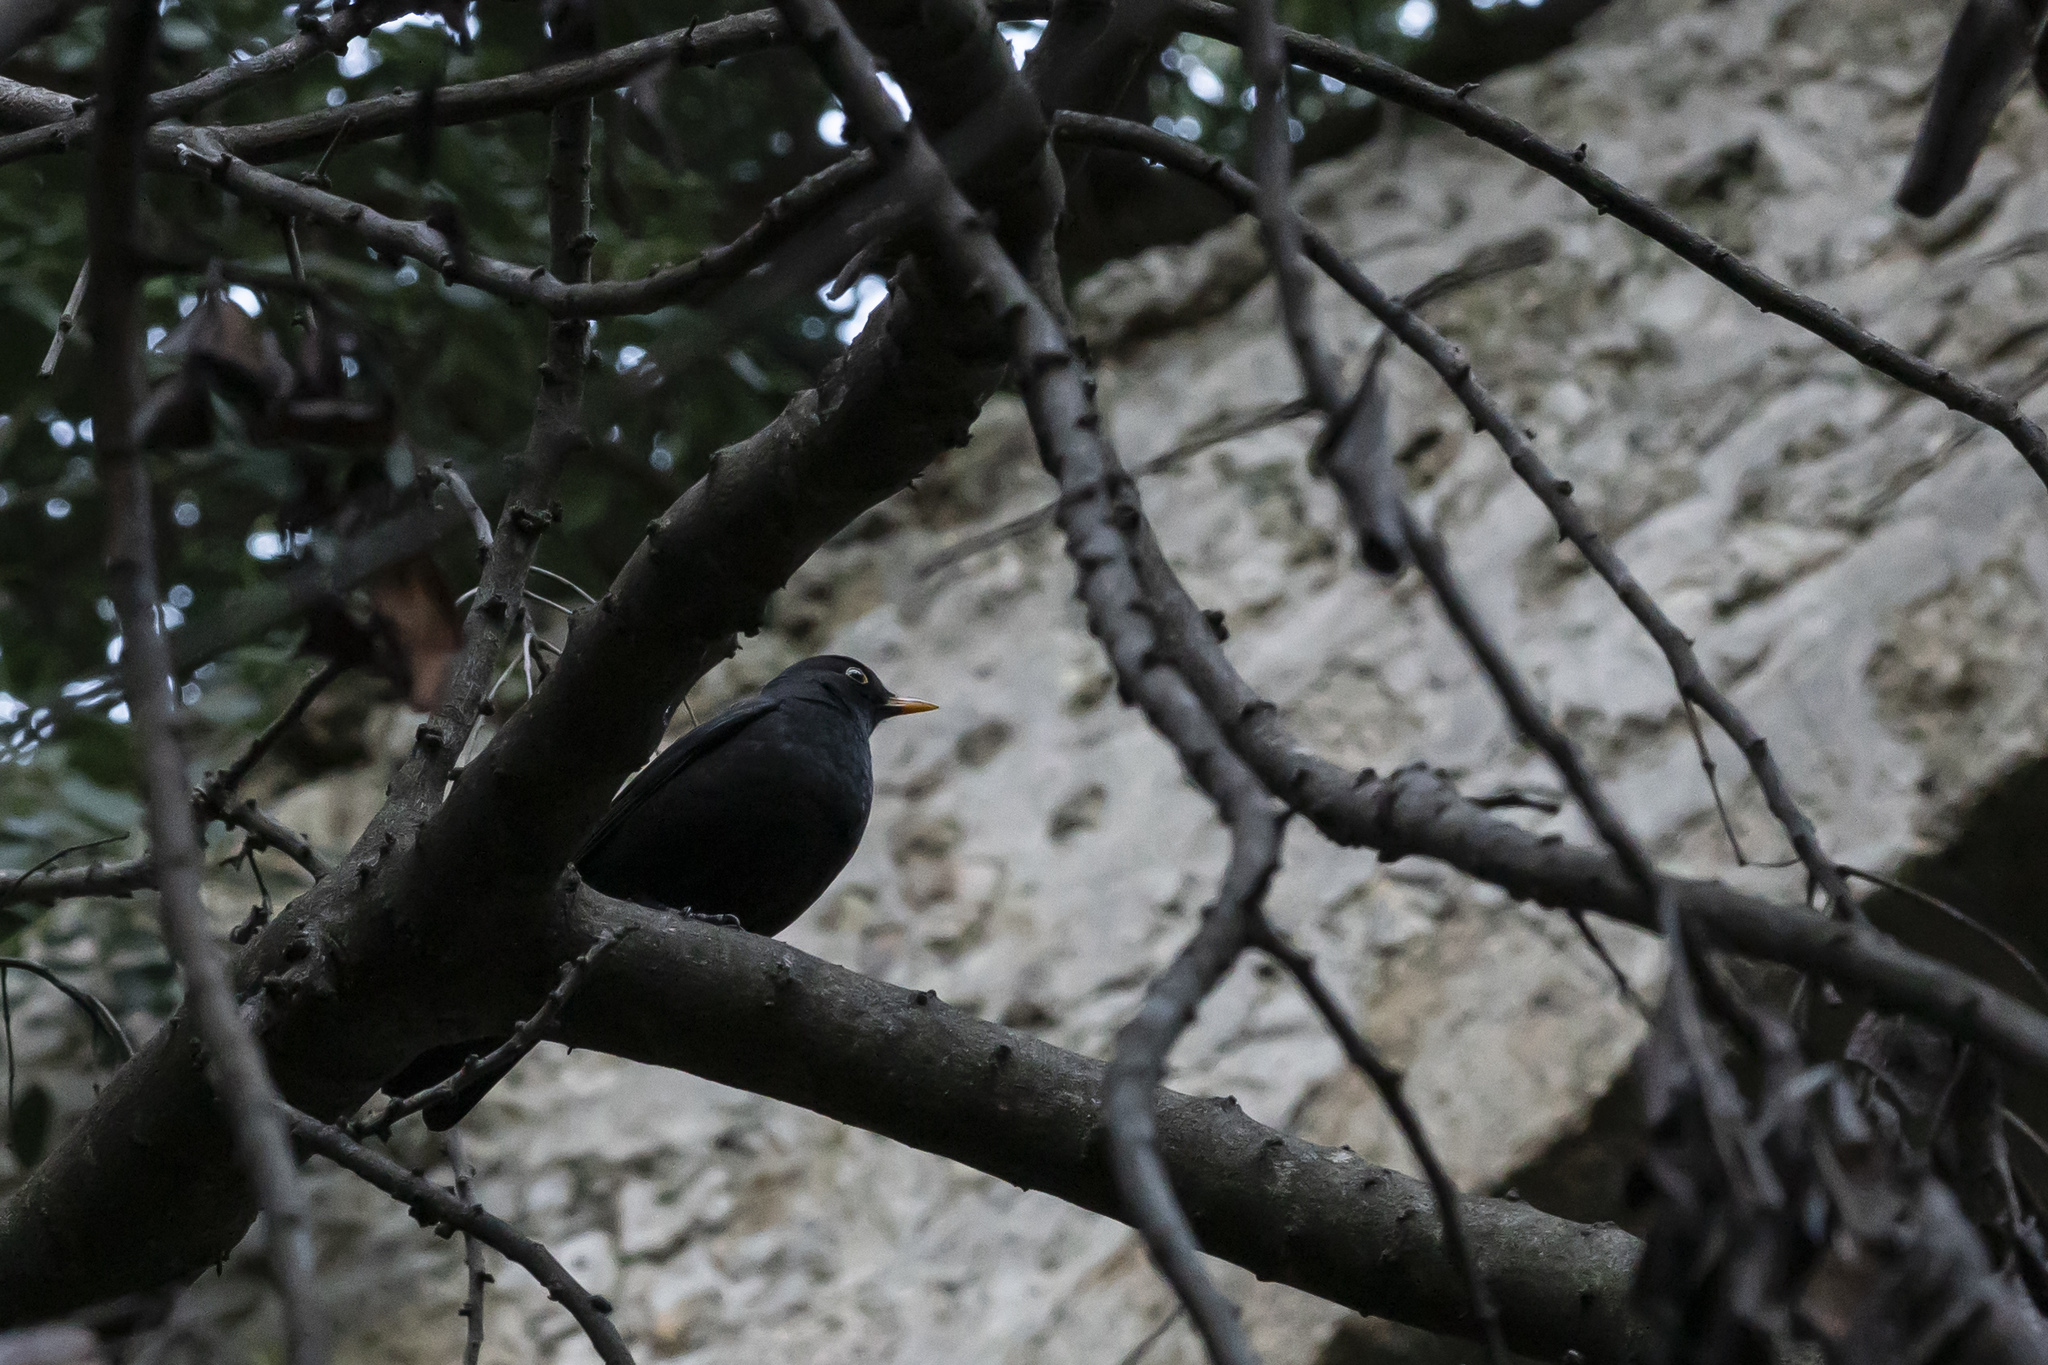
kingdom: Animalia
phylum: Chordata
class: Aves
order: Passeriformes
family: Turdidae
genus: Turdus
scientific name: Turdus merula
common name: Common blackbird
